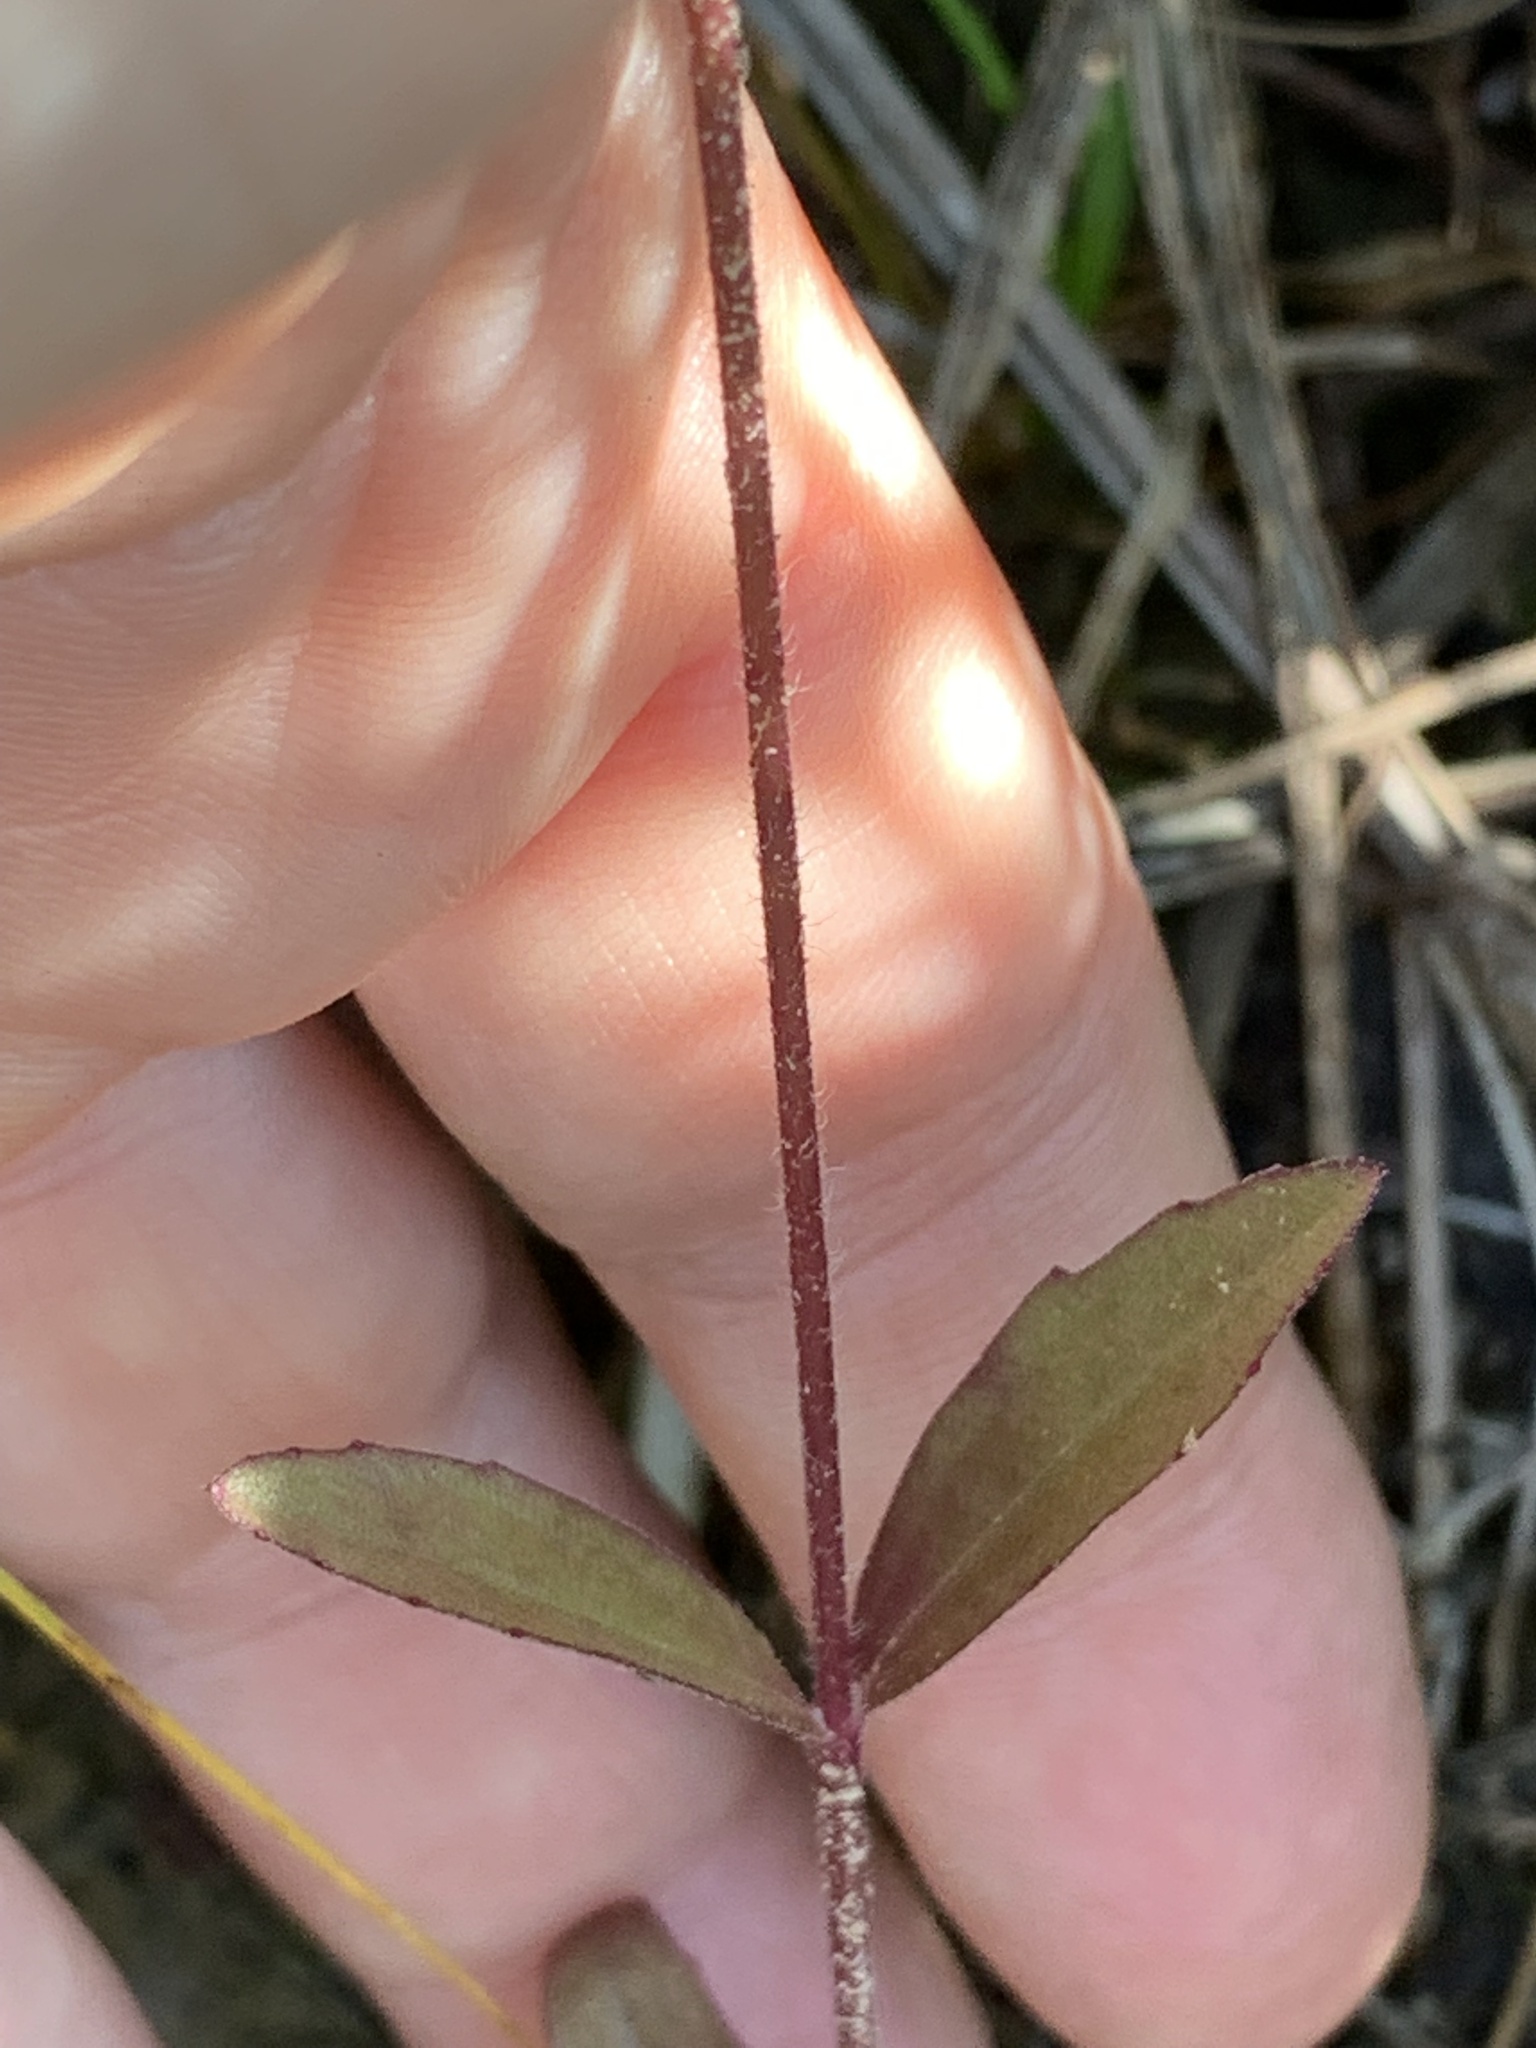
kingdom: Plantae
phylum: Tracheophyta
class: Magnoliopsida
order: Lamiales
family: Orobanchaceae
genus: Buchnera
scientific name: Buchnera floridana
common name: Florida bluehearts
